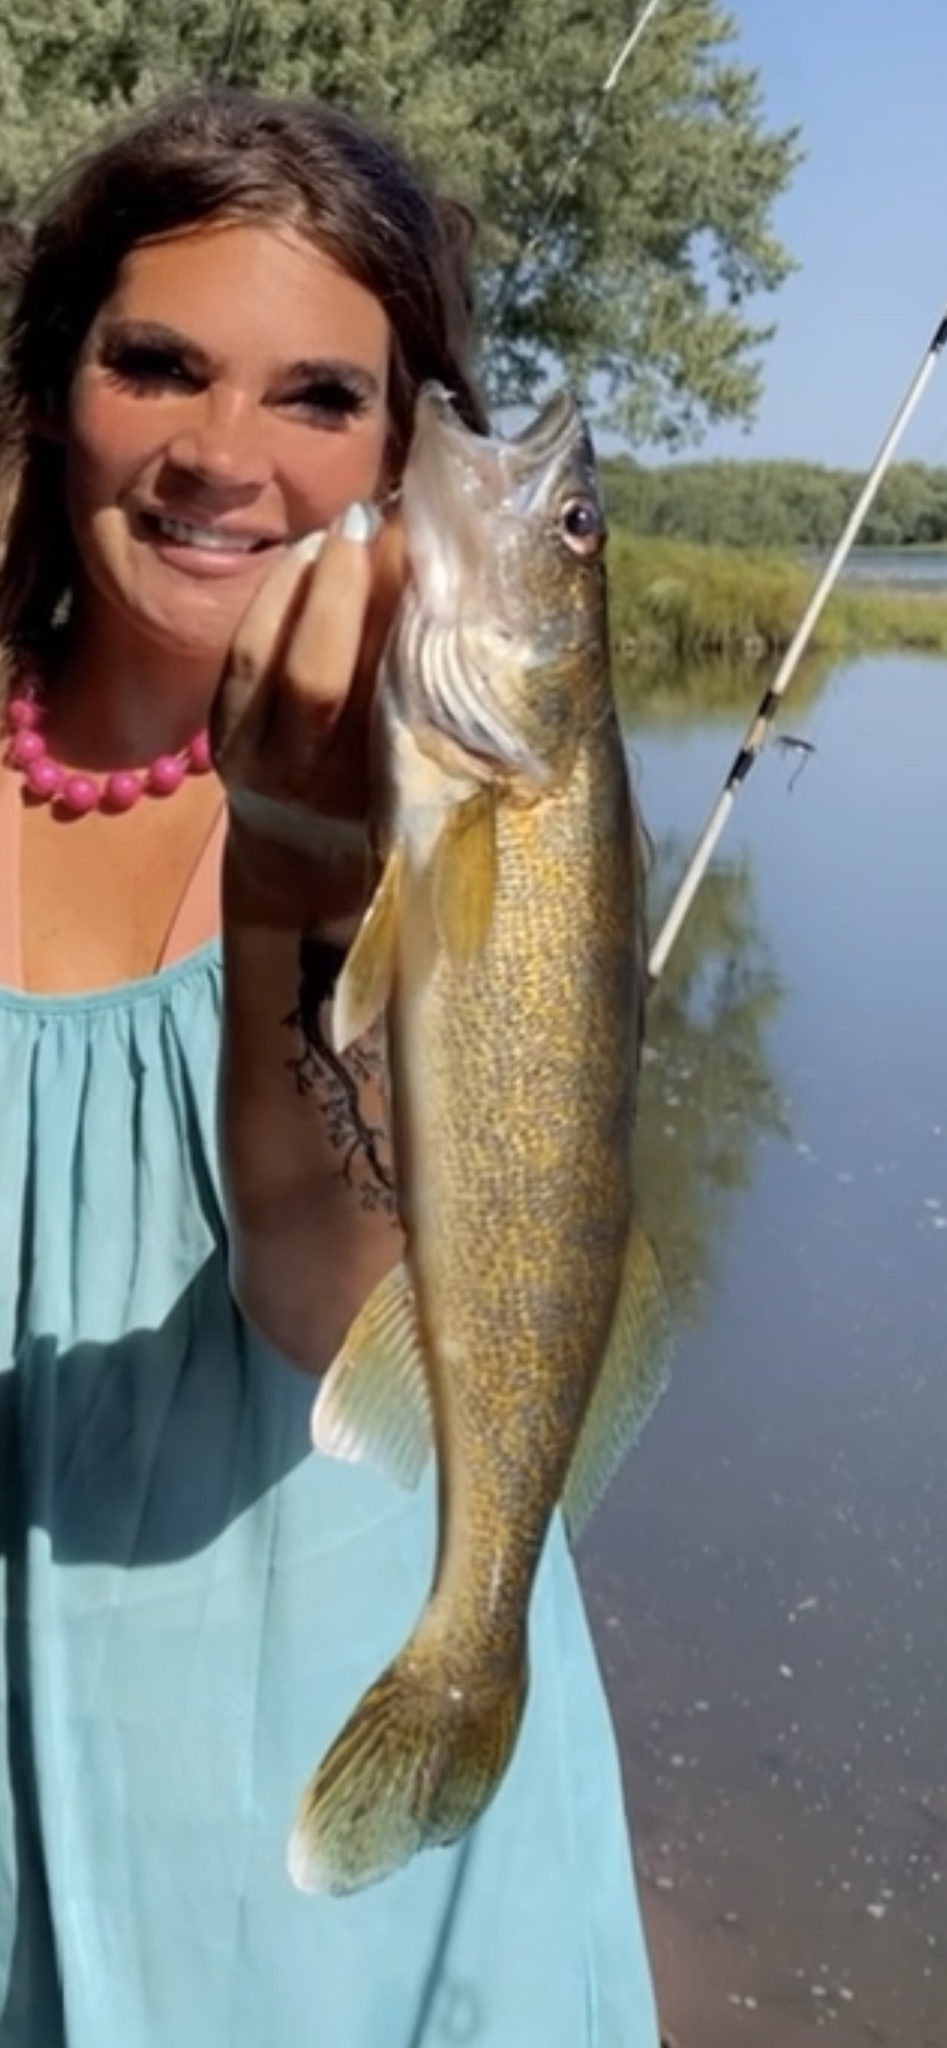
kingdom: Animalia
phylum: Chordata
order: Perciformes
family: Percidae
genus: Sander
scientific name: Sander vitreus
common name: Walleye
